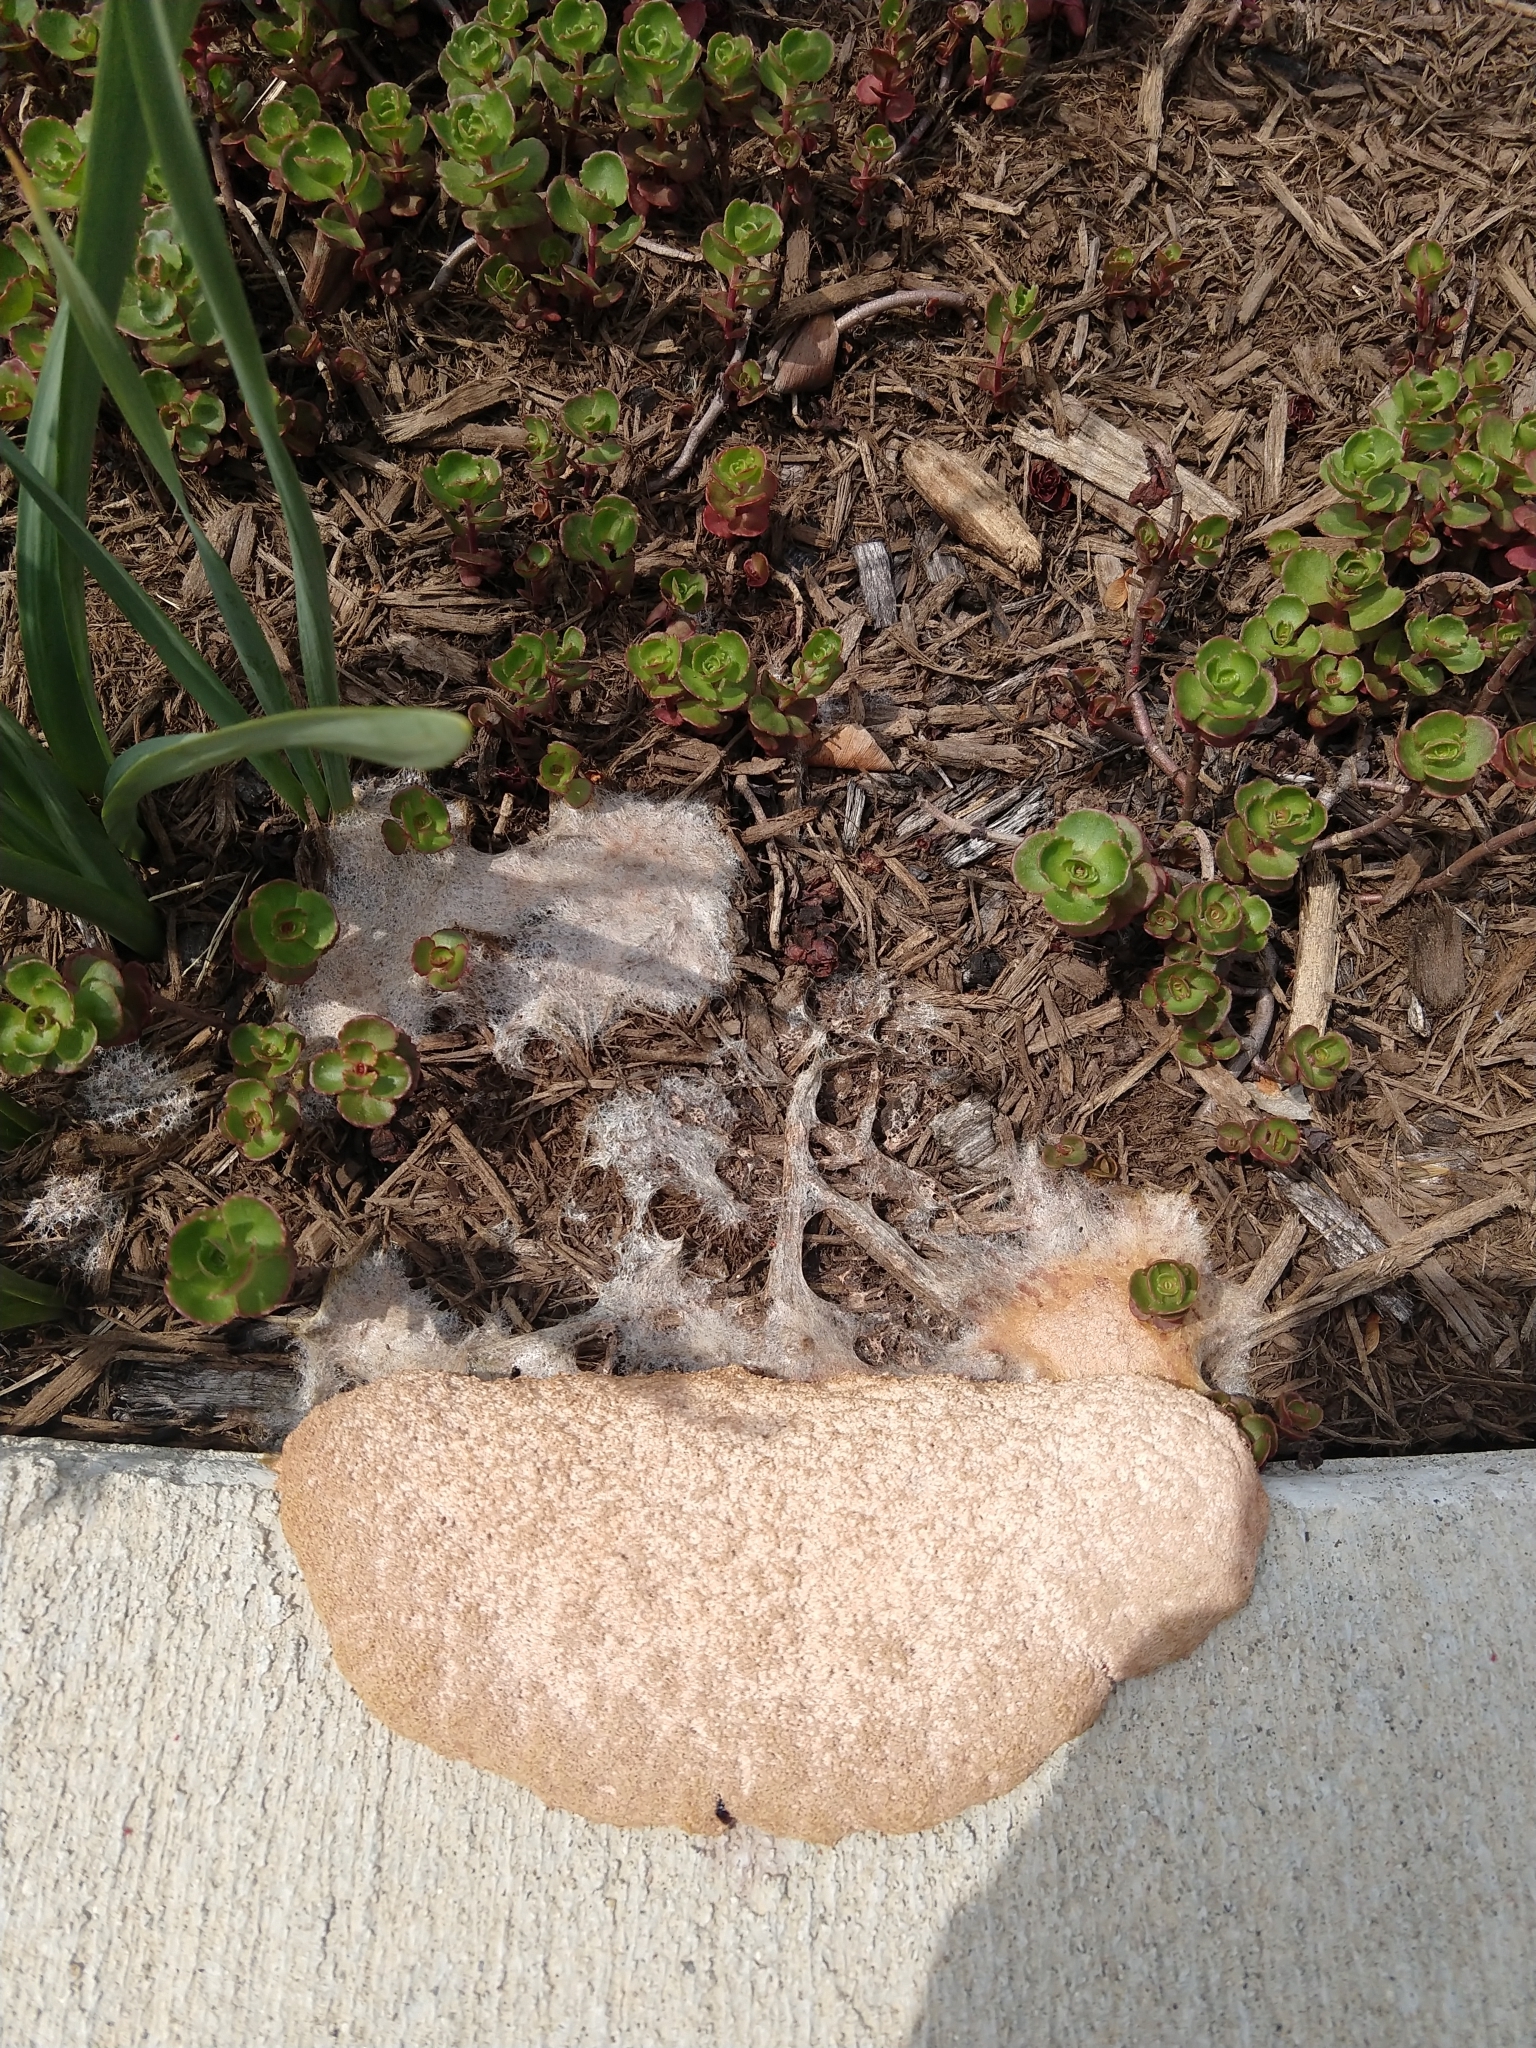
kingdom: Protozoa
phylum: Mycetozoa
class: Myxomycetes
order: Physarales
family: Physaraceae
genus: Fuligo
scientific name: Fuligo septica
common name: Dog vomit slime mold
